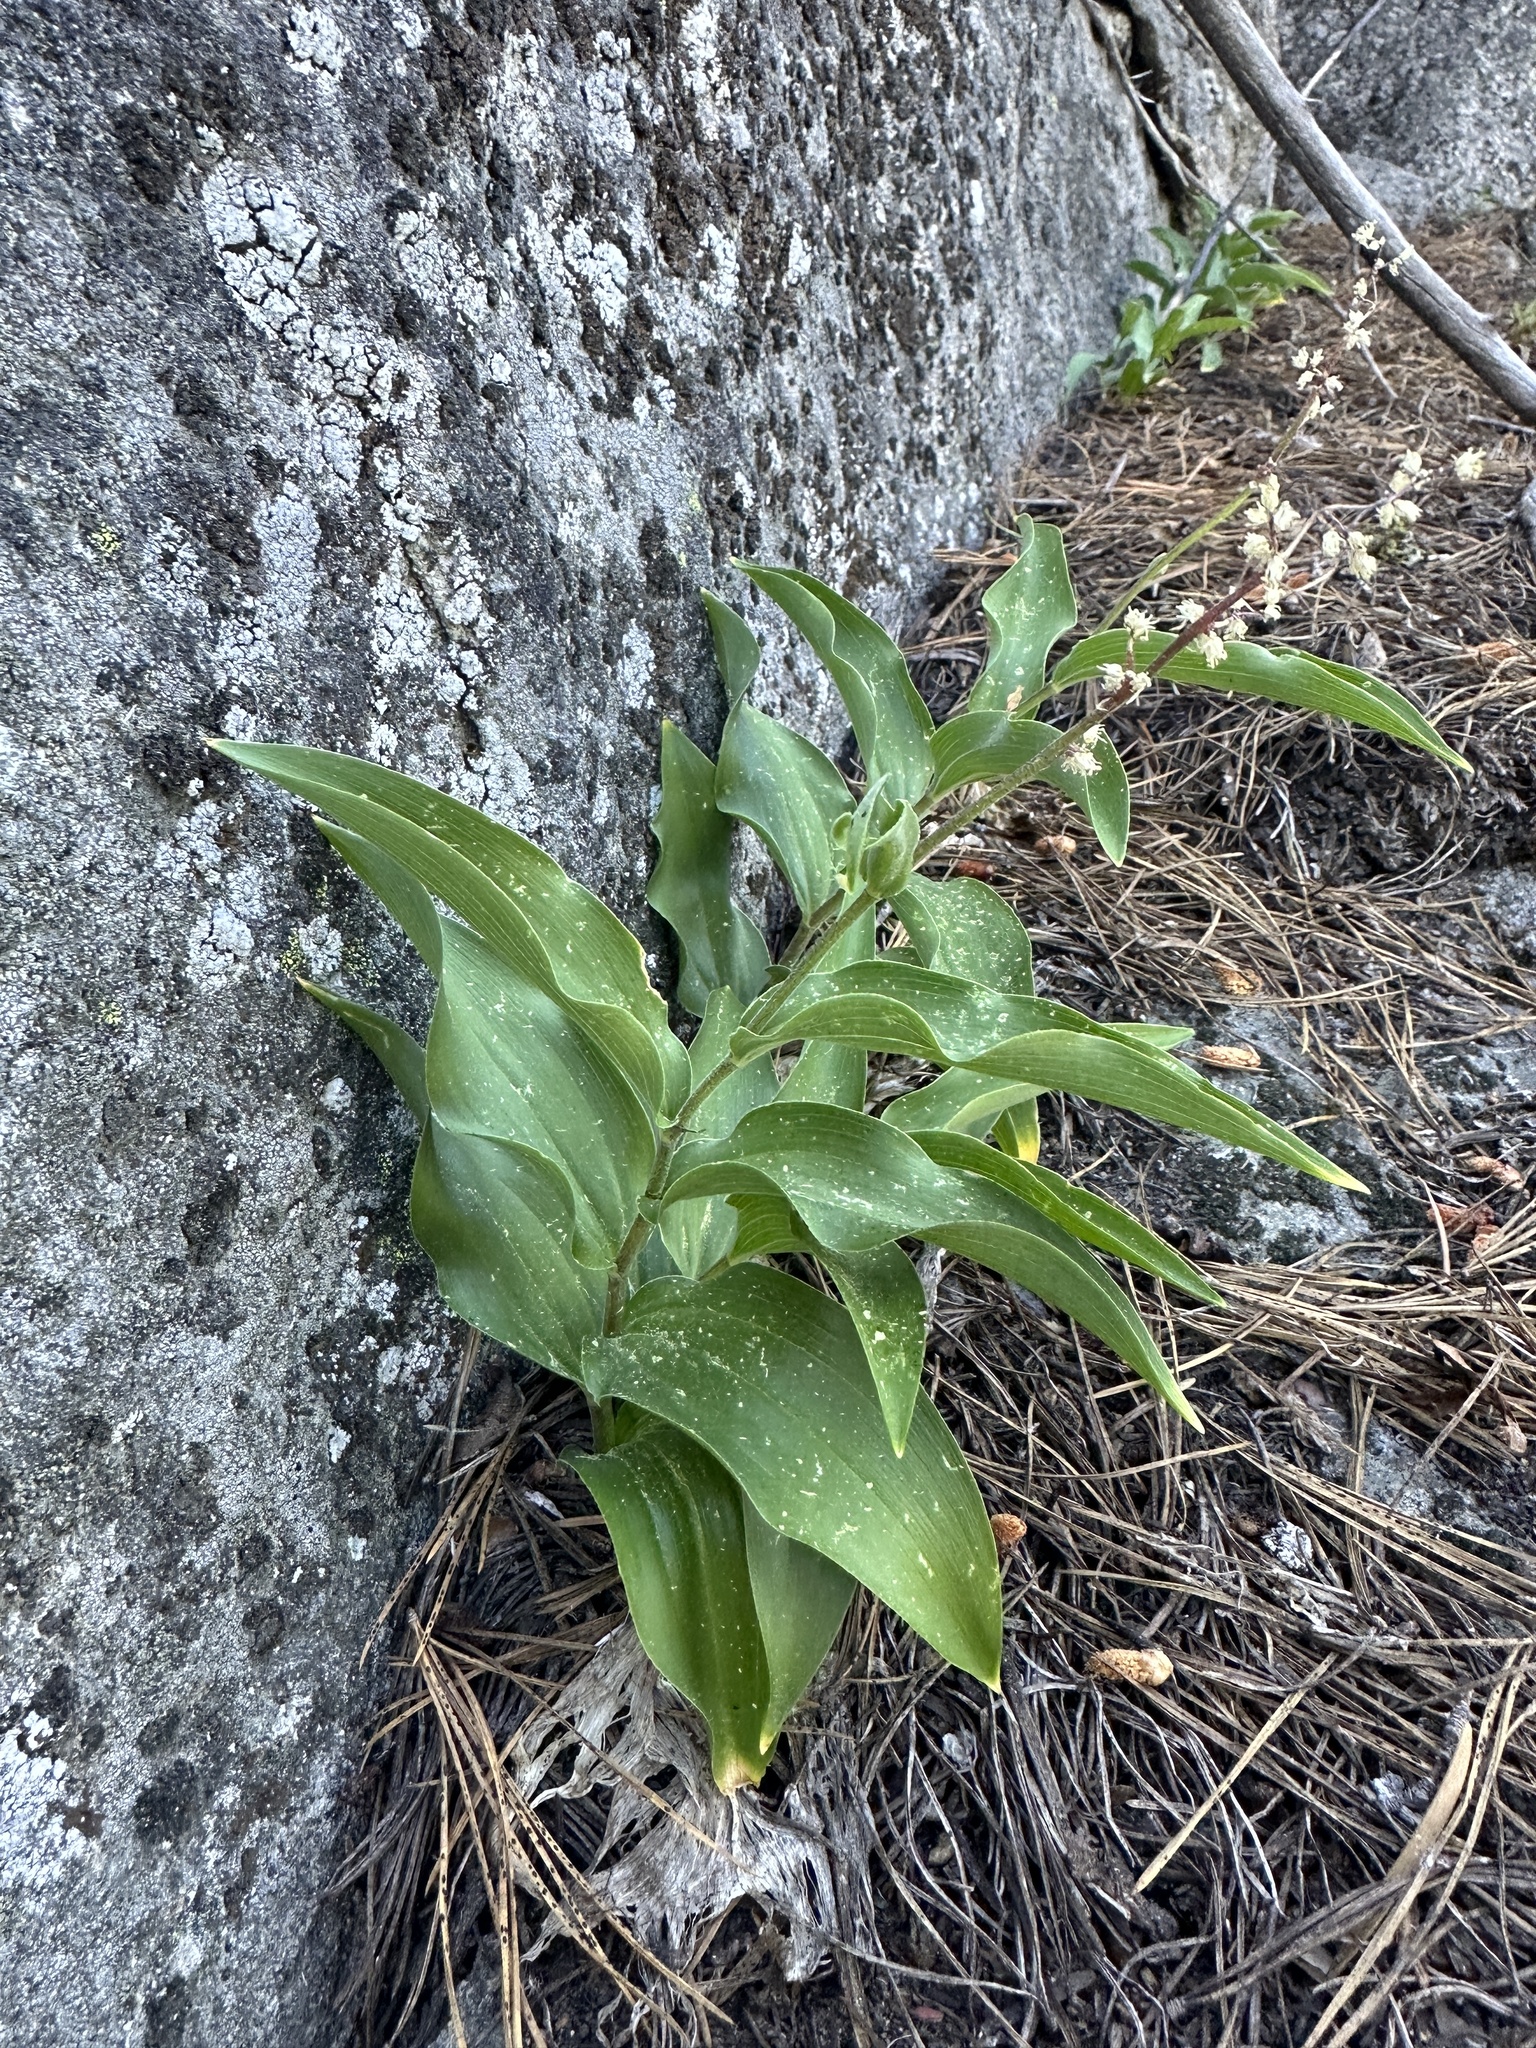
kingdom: Plantae
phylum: Tracheophyta
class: Liliopsida
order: Asparagales
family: Asparagaceae
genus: Maianthemum
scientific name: Maianthemum racemosum
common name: False spikenard
